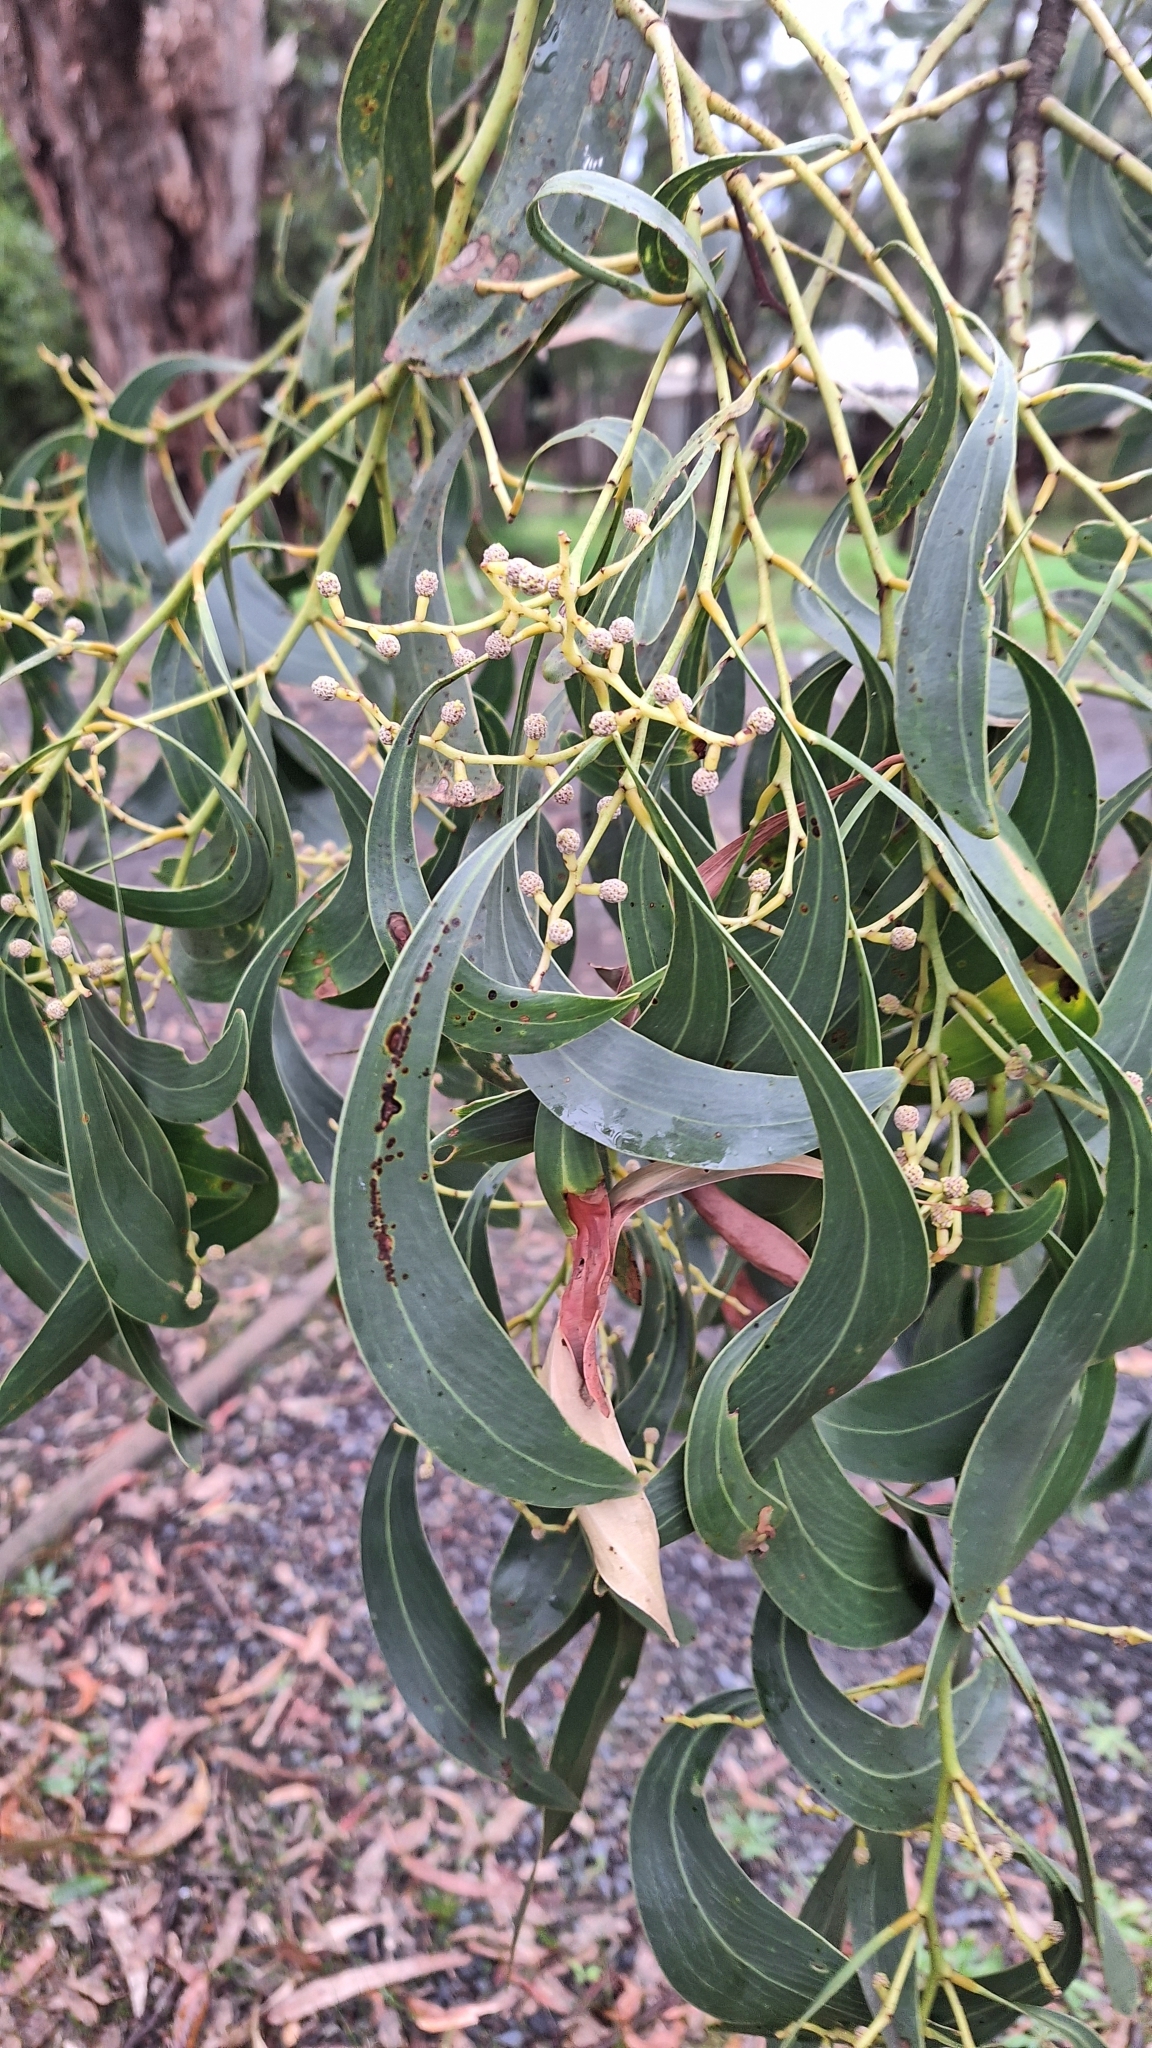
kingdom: Plantae
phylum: Tracheophyta
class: Magnoliopsida
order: Fabales
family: Fabaceae
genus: Acacia
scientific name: Acacia pycnantha
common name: Golden wattle
